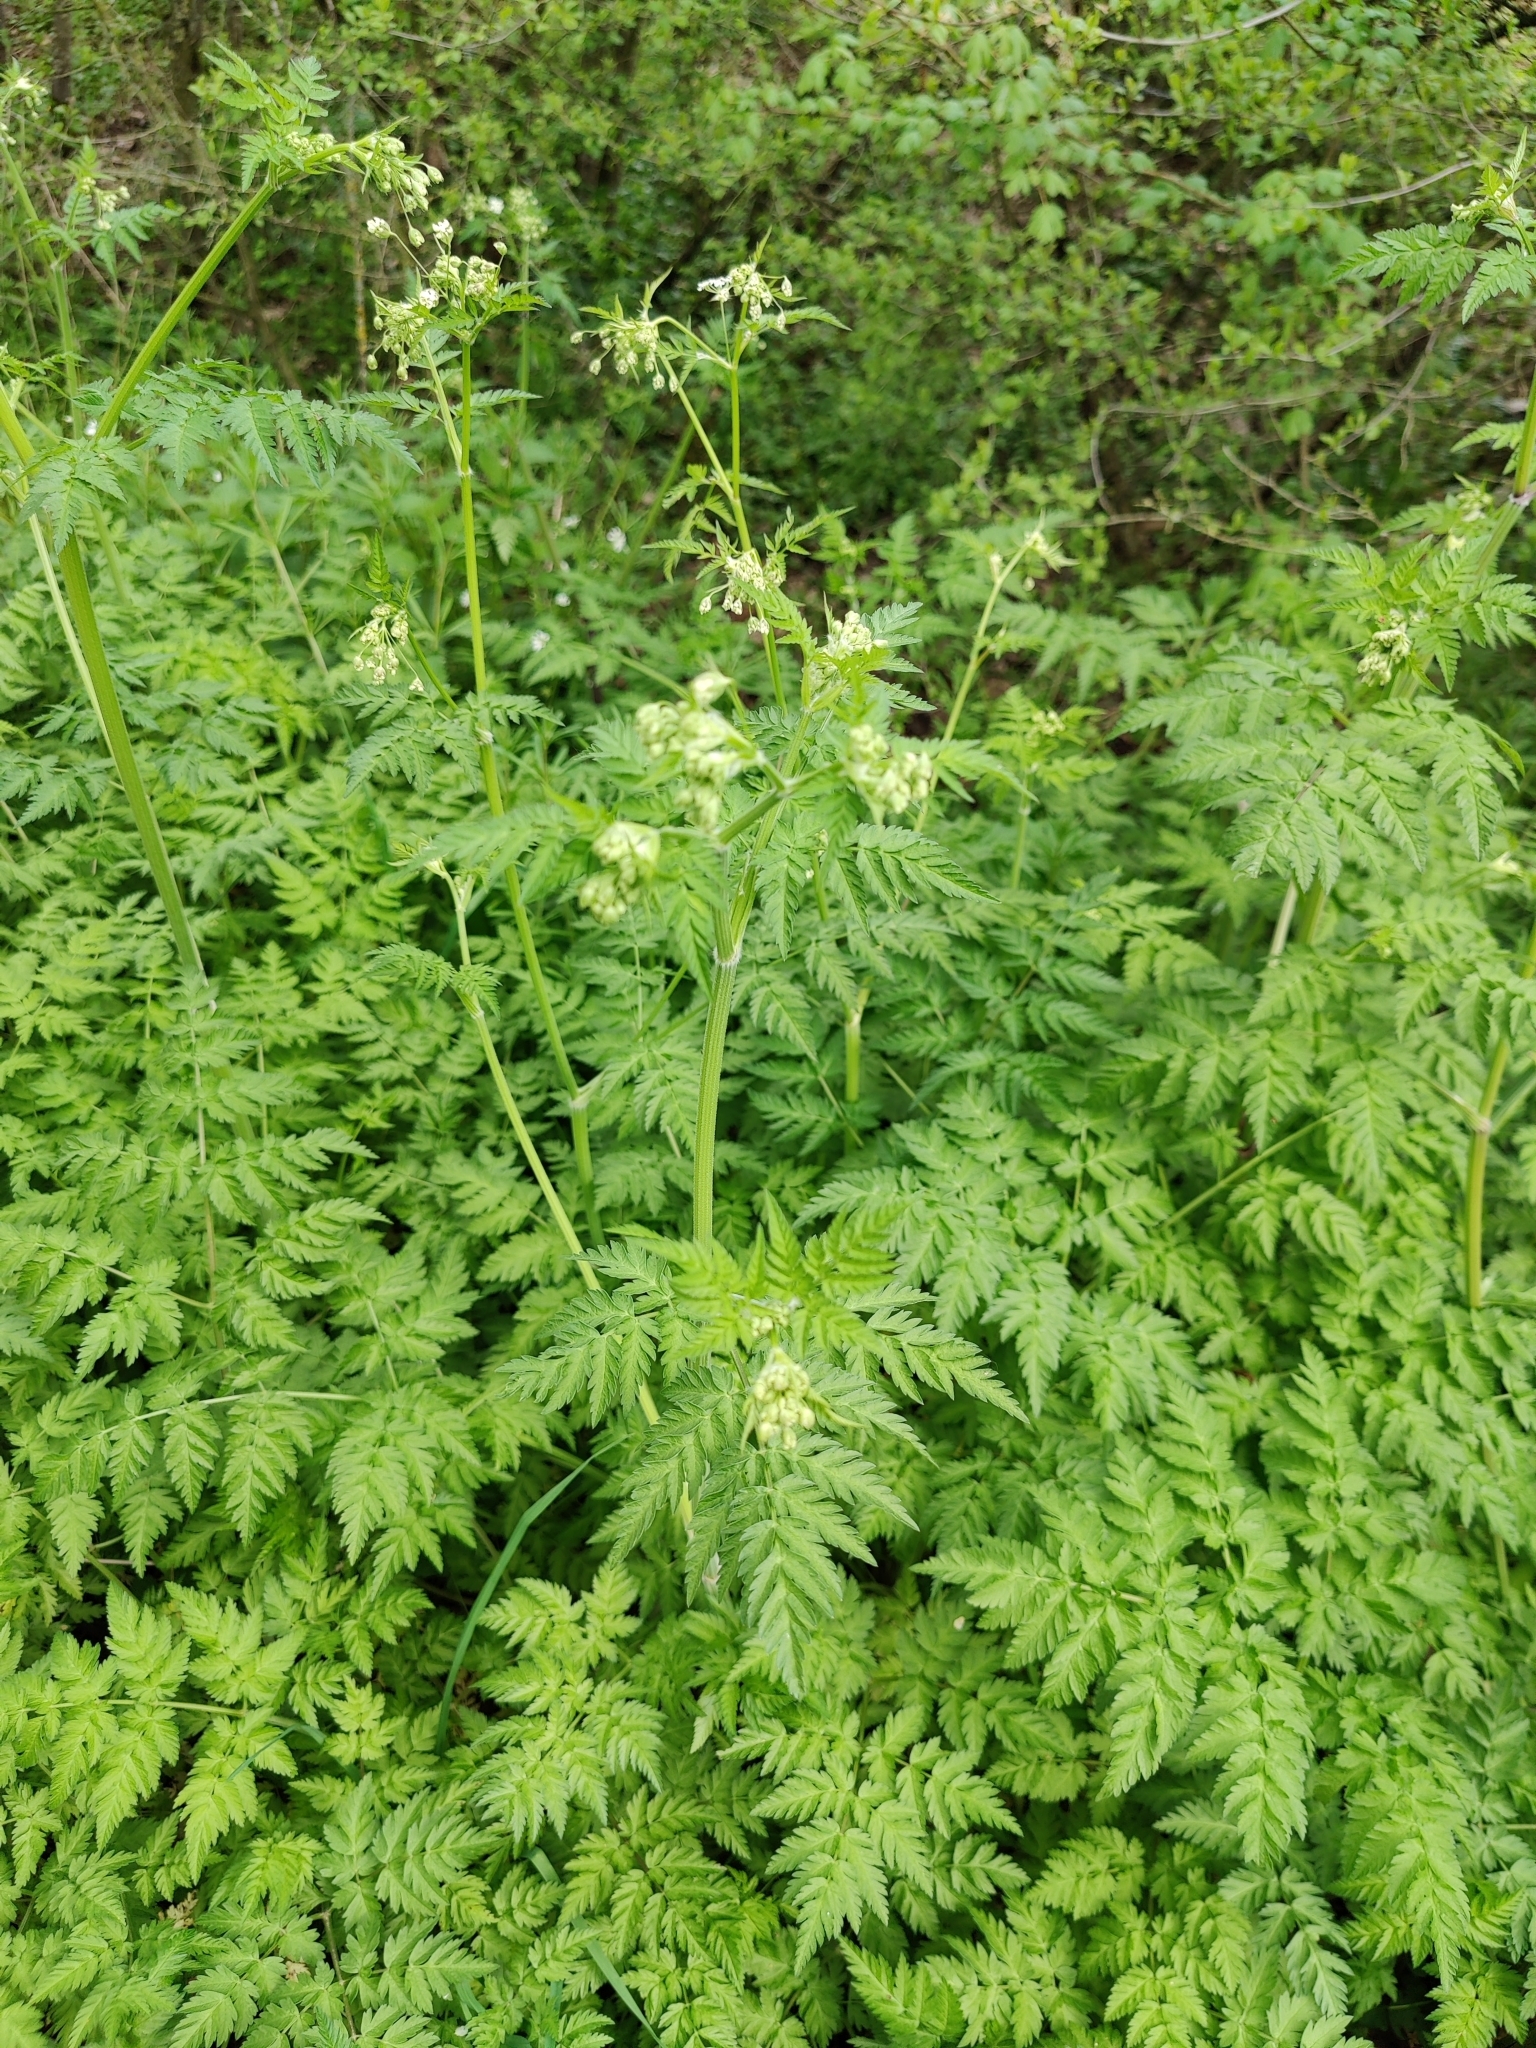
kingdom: Plantae
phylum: Tracheophyta
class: Magnoliopsida
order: Apiales
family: Apiaceae
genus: Anthriscus
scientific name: Anthriscus sylvestris
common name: Cow parsley
